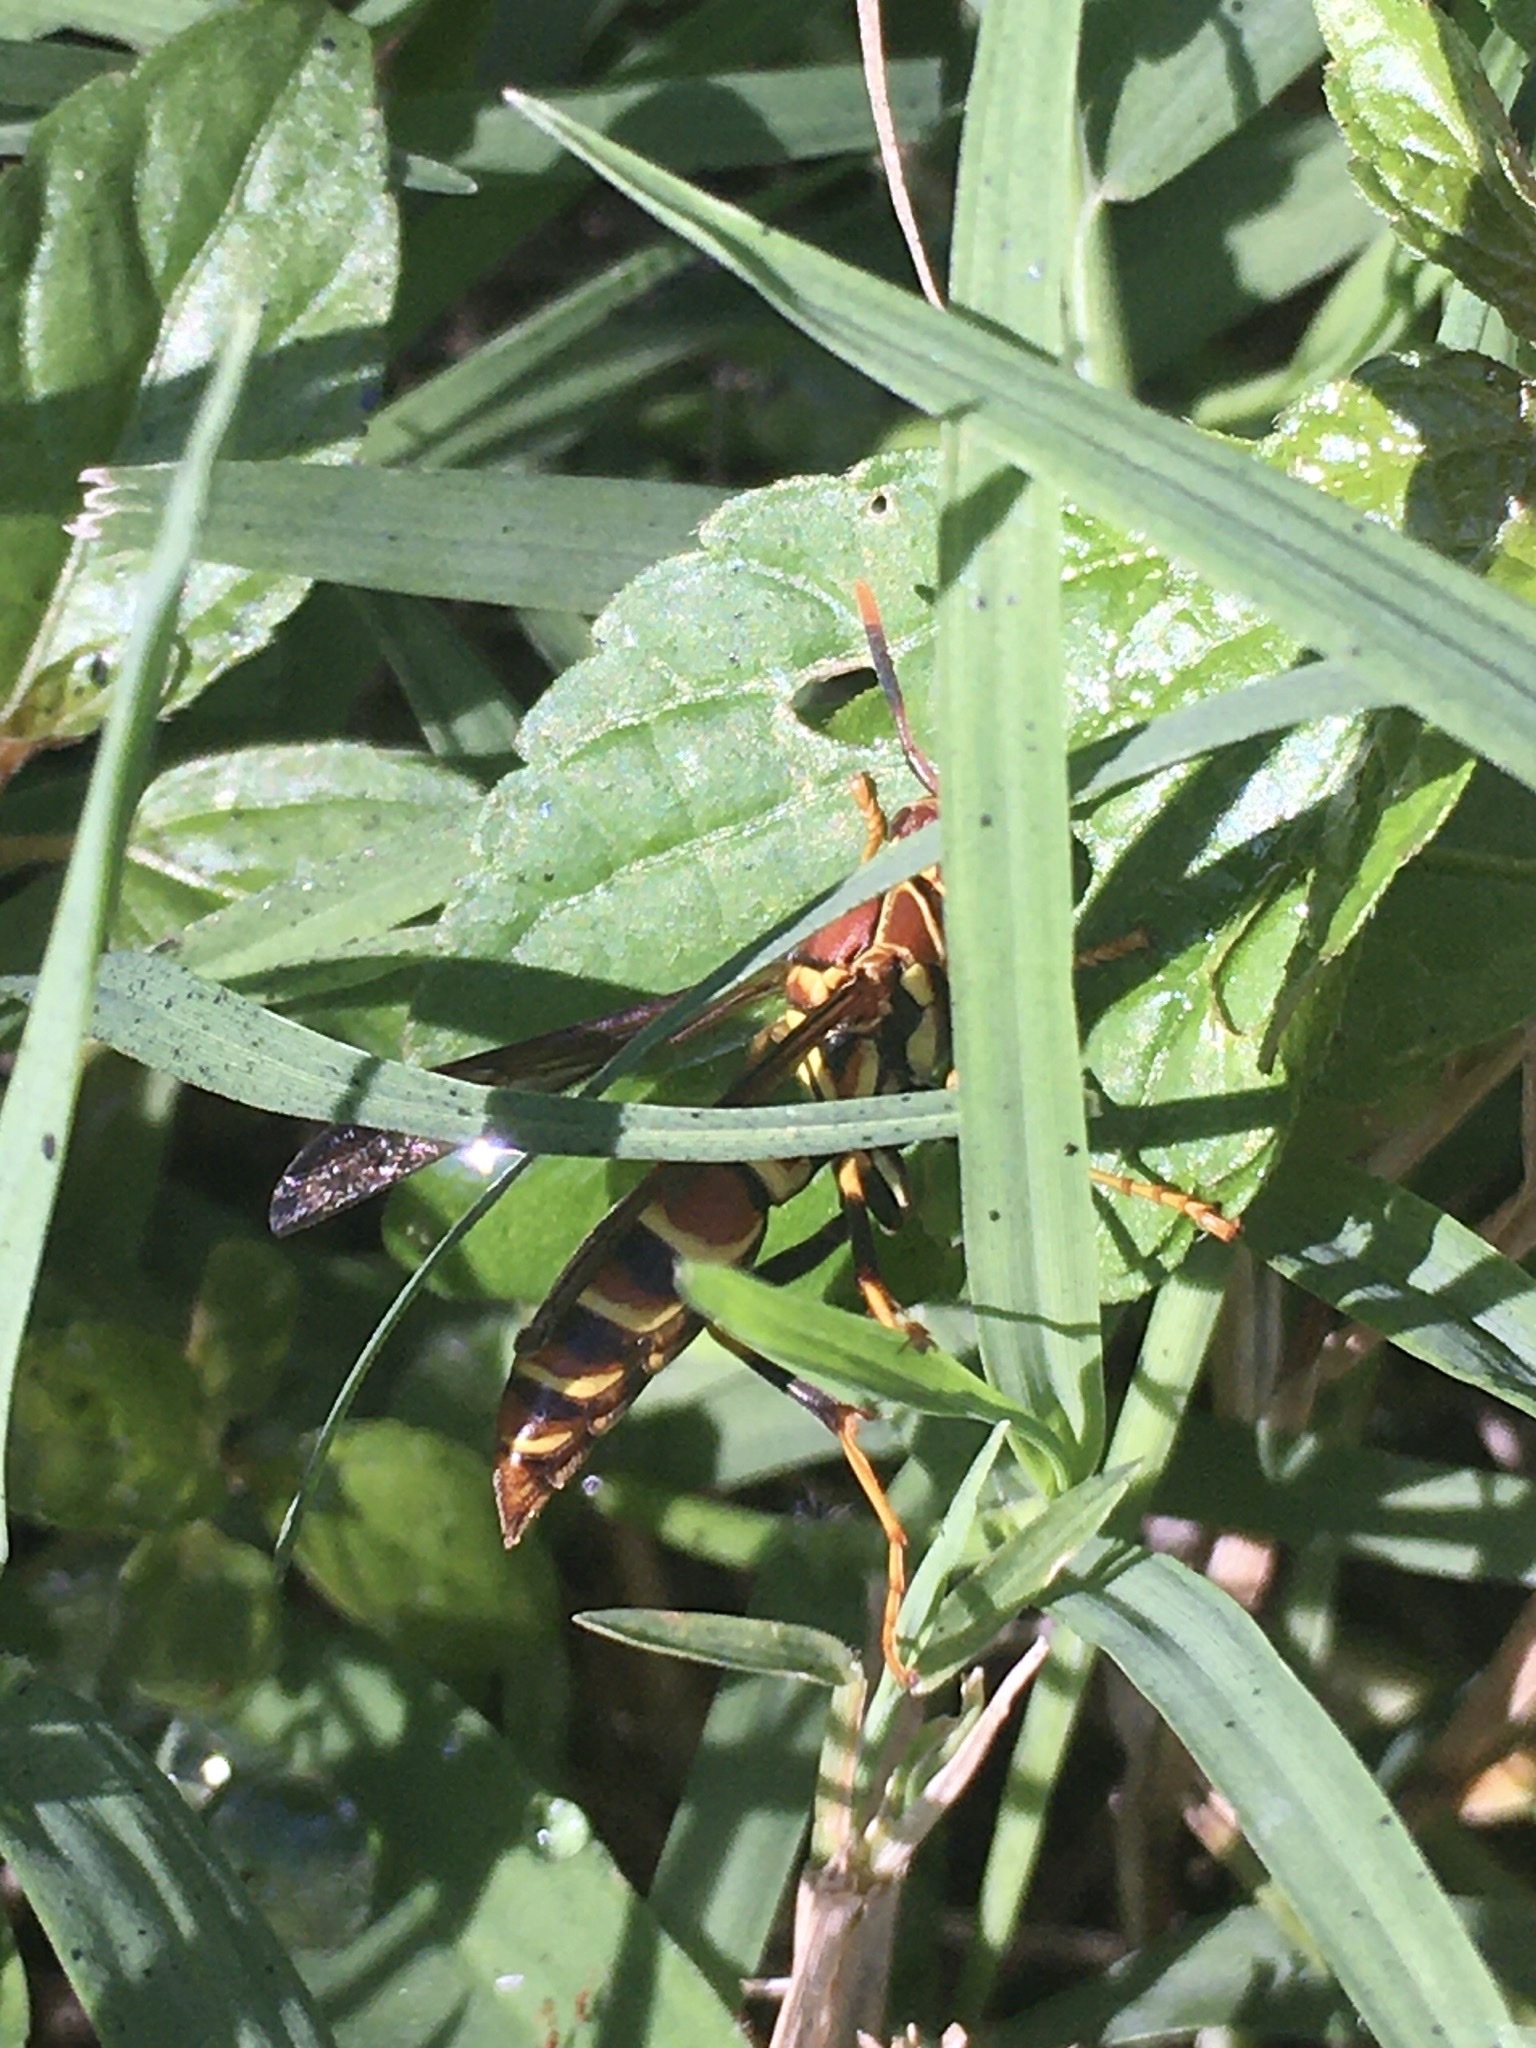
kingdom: Animalia
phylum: Arthropoda
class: Insecta
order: Hymenoptera
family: Eumenidae
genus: Polistes
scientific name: Polistes exclamans
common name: Paper wasp
